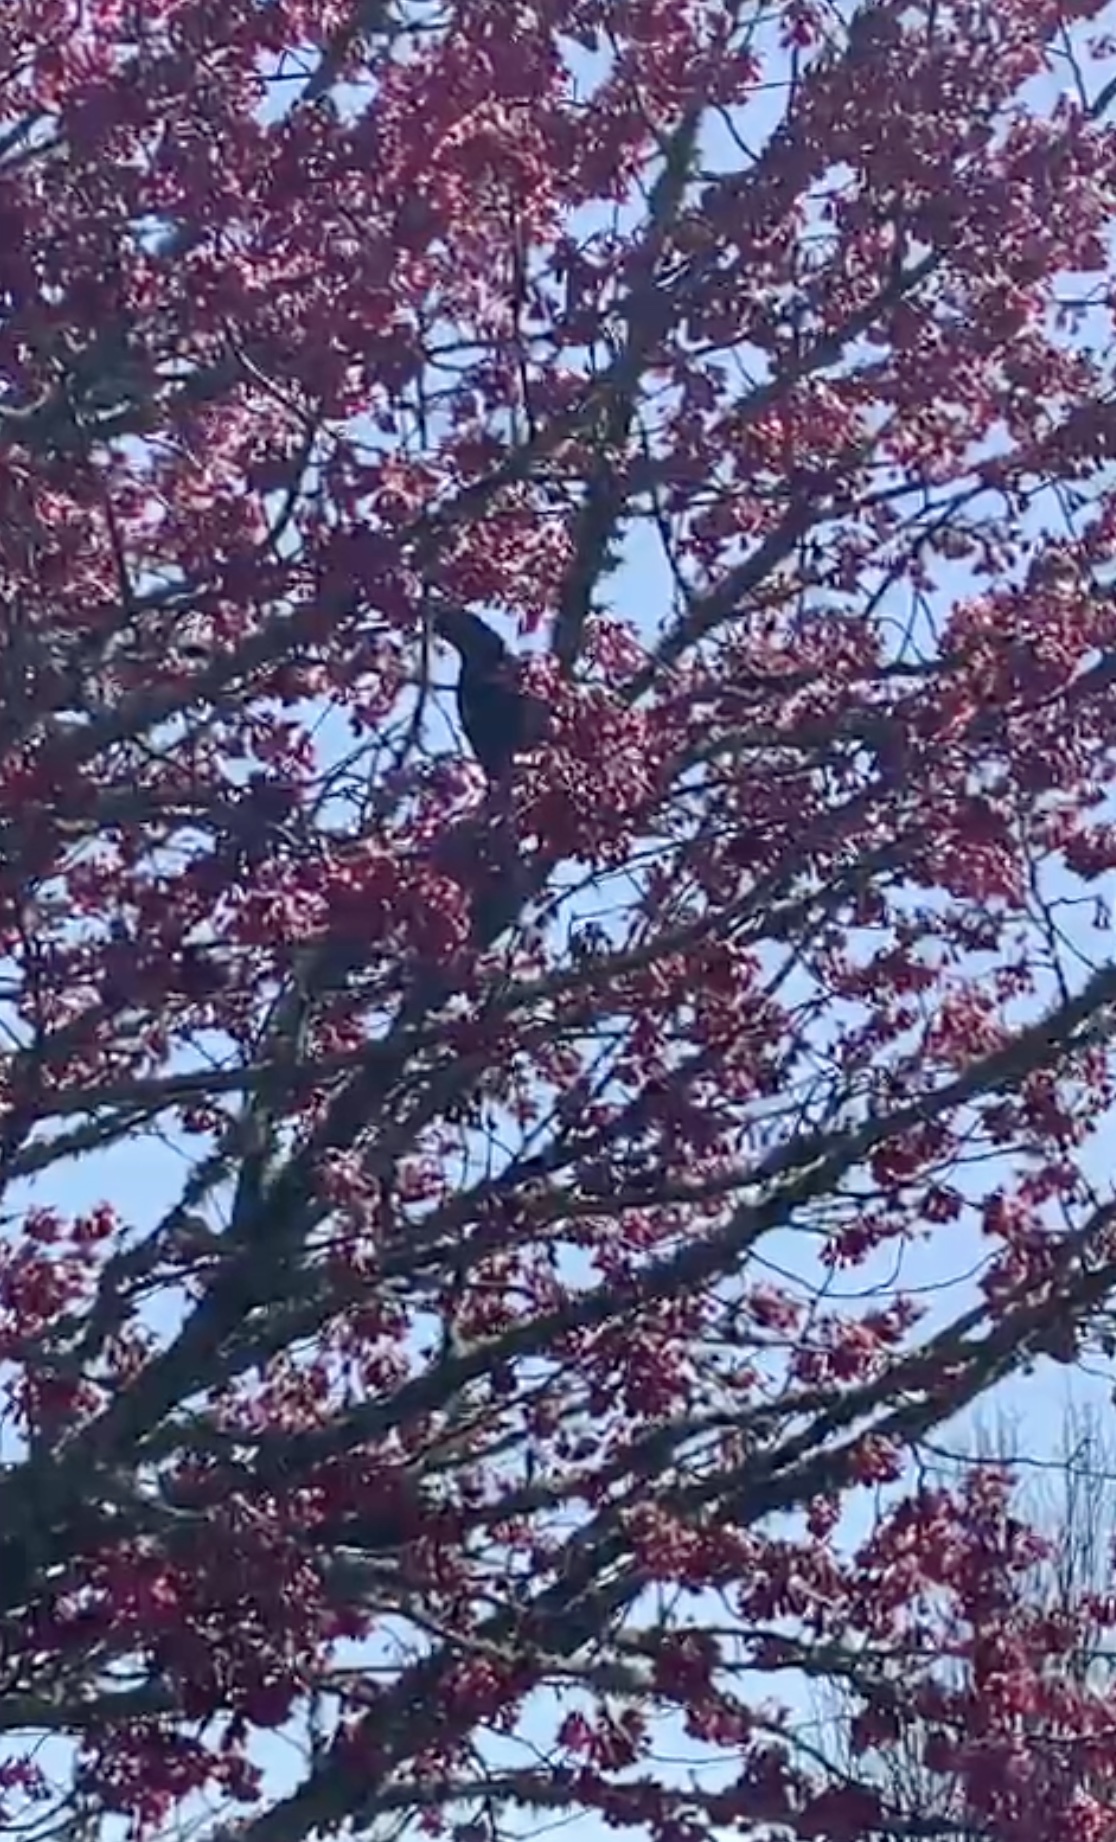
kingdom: Animalia
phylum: Chordata
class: Aves
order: Psittaciformes
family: Psittacidae
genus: Nestor
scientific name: Nestor meridionalis
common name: New zealand kaka
